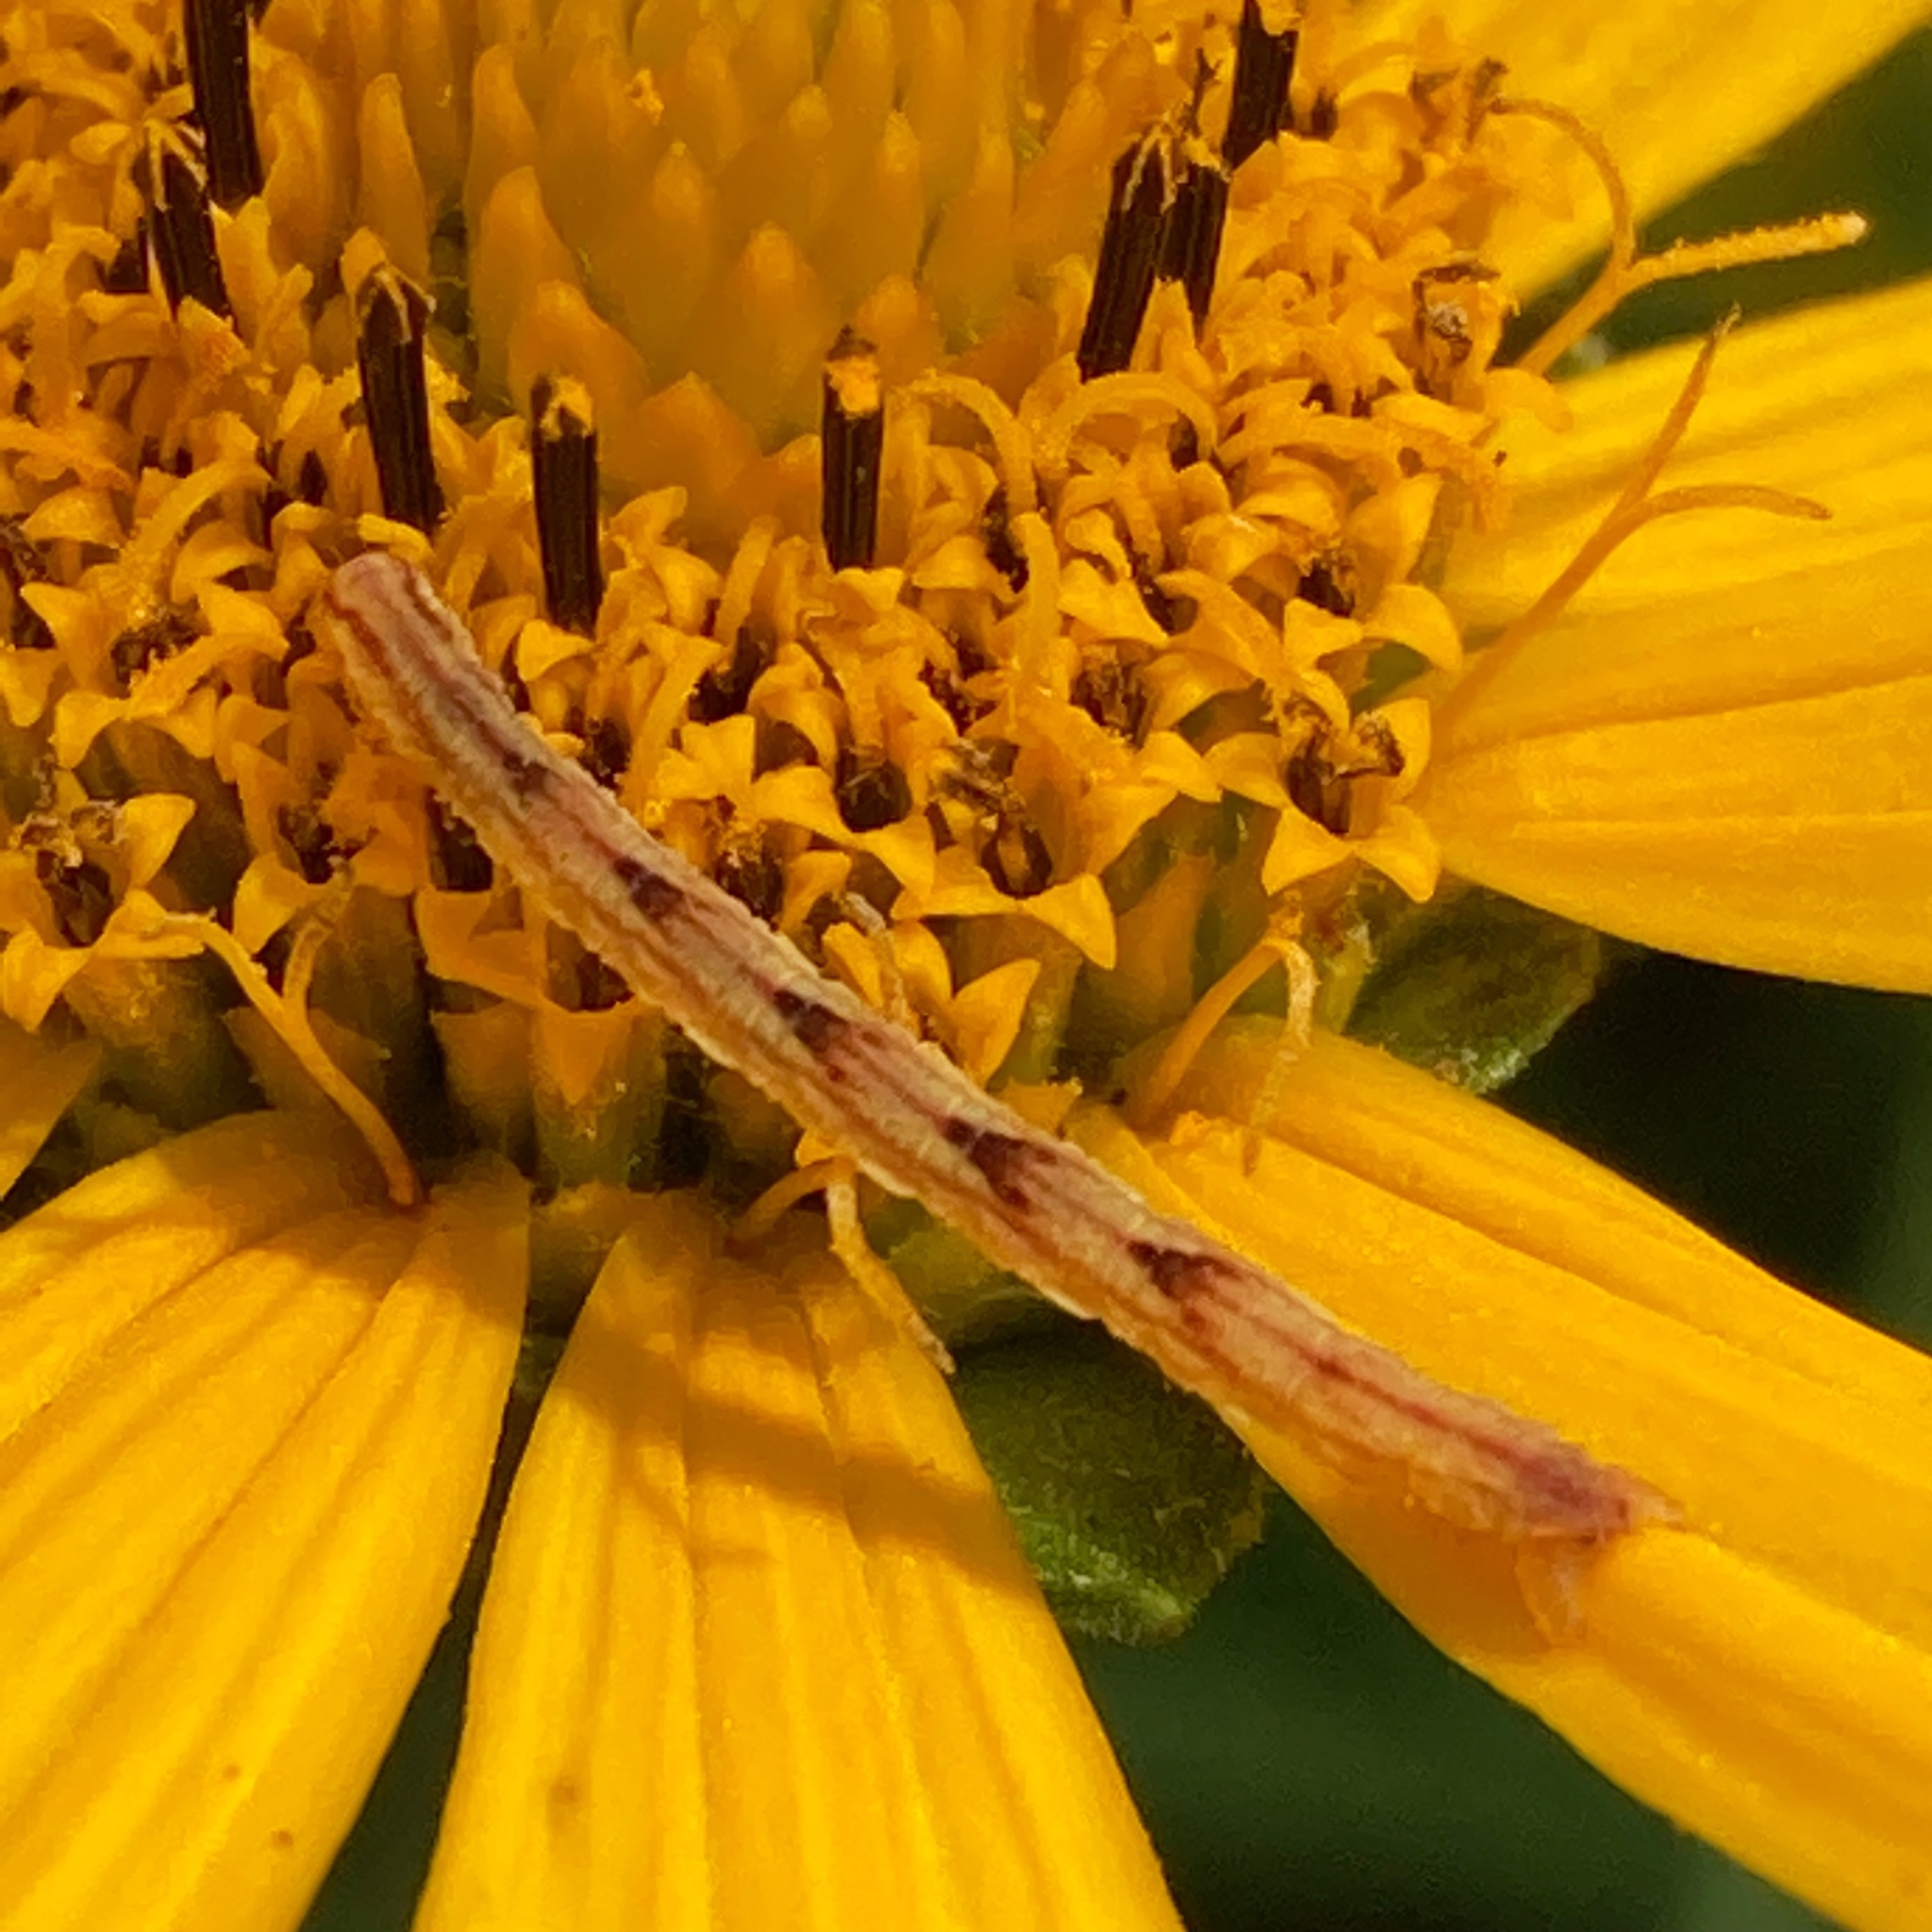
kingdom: Animalia
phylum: Arthropoda
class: Insecta
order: Lepidoptera
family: Geometridae
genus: Eupithecia
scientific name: Eupithecia miserulata
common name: Common eupithecia
